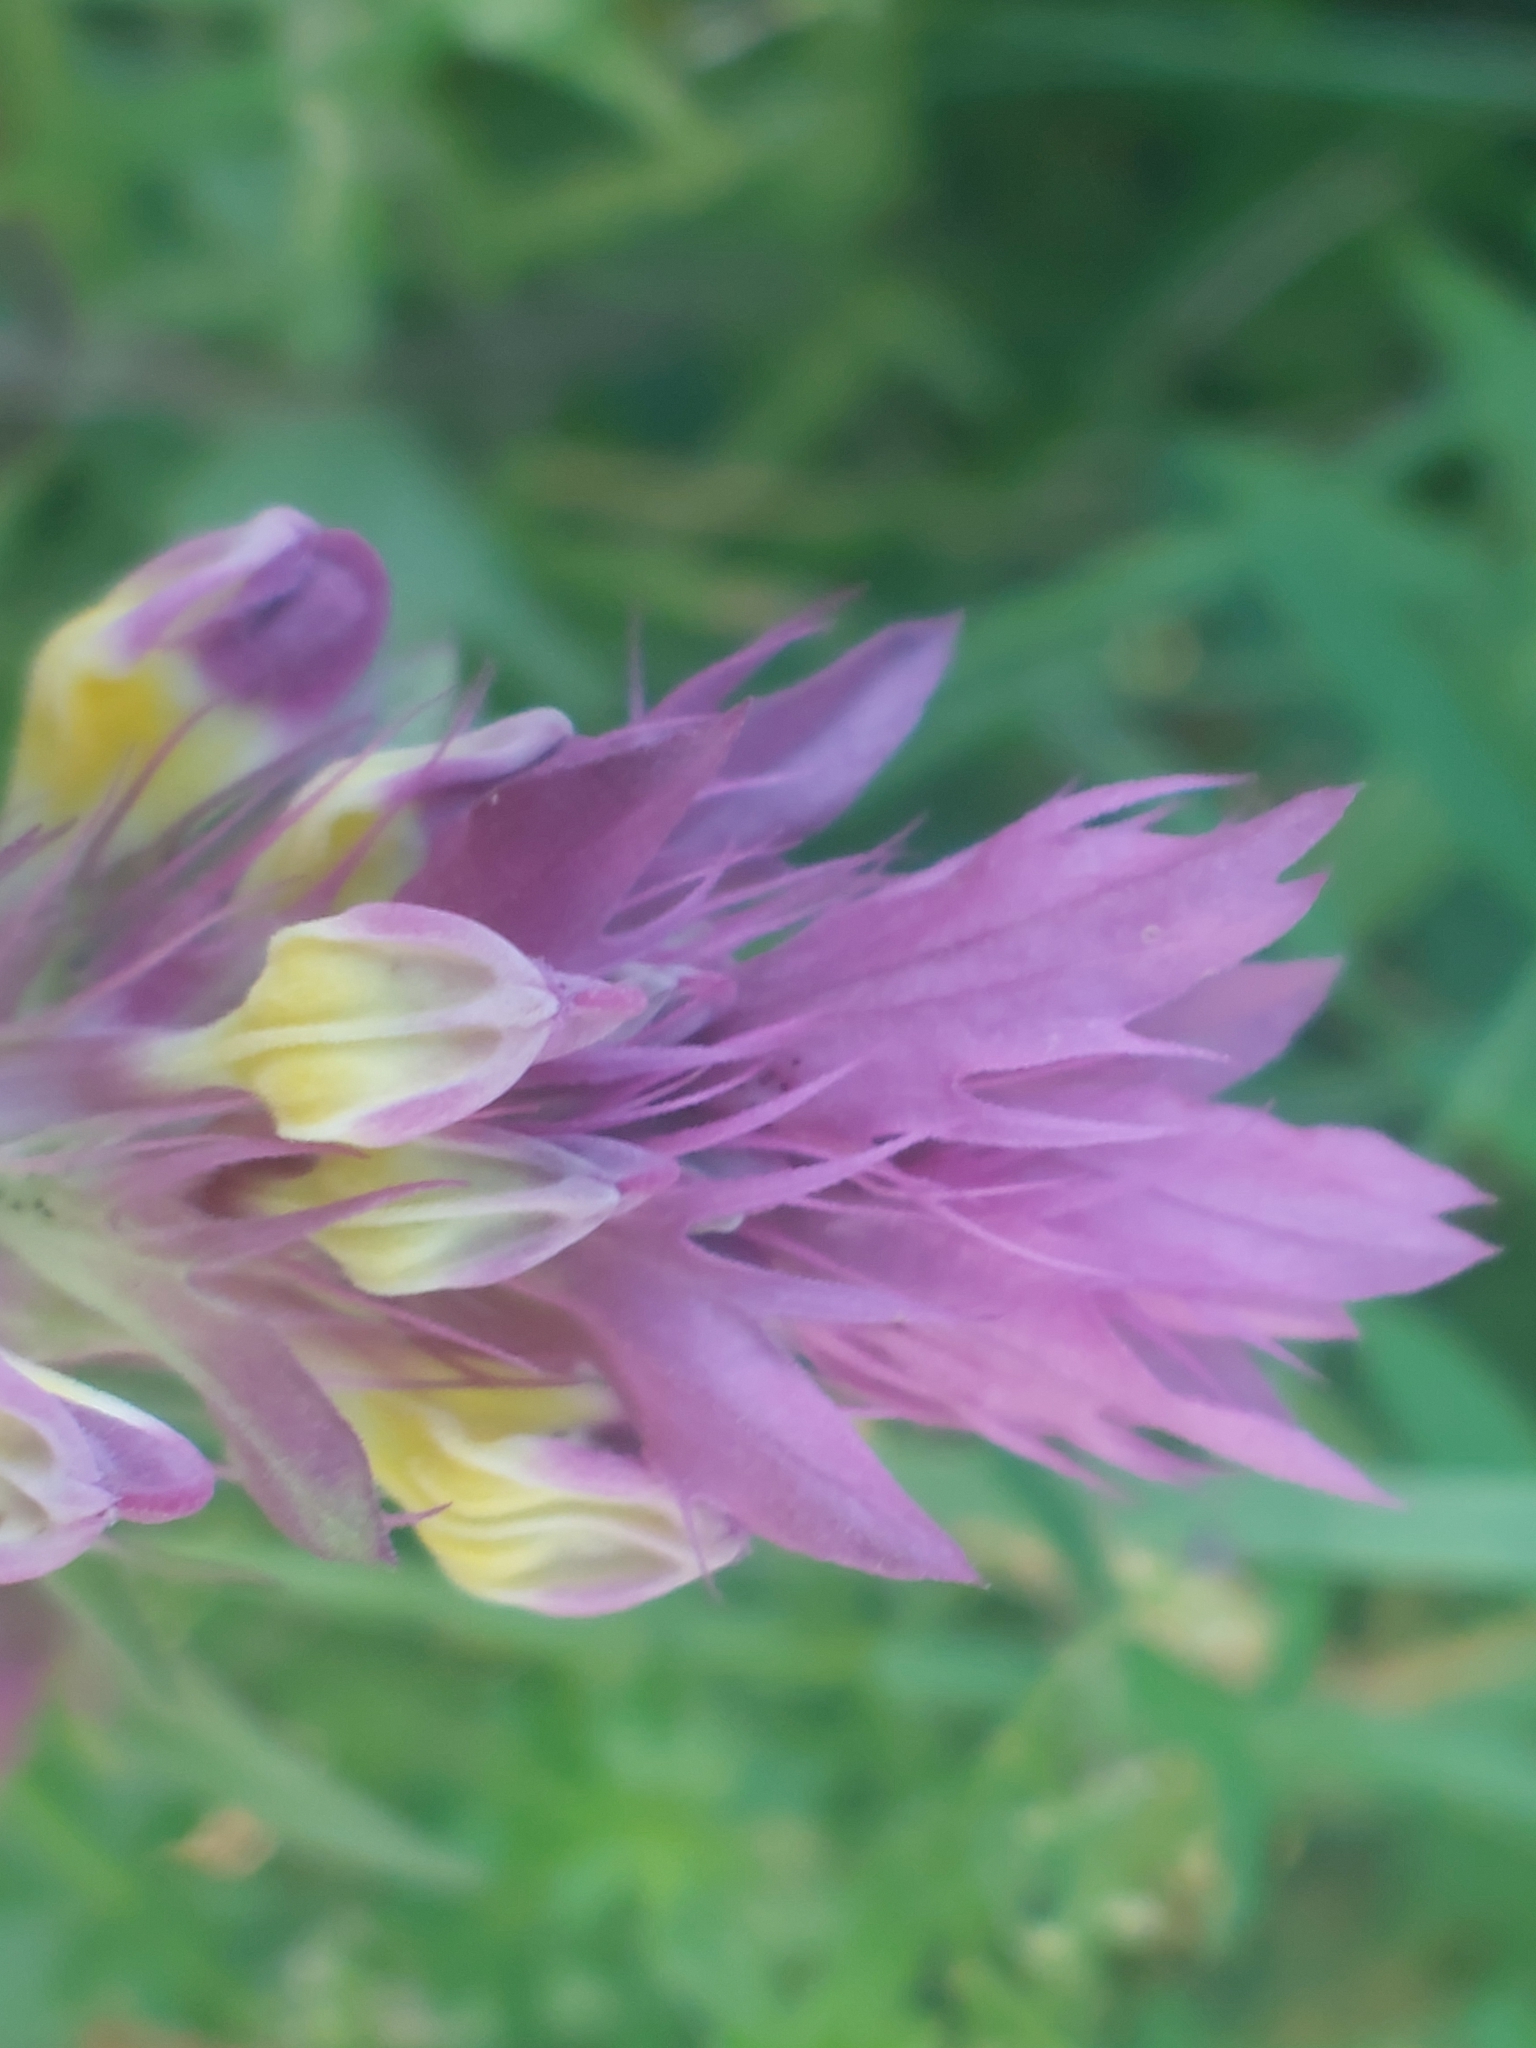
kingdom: Plantae
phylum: Tracheophyta
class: Magnoliopsida
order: Lamiales
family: Orobanchaceae
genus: Melampyrum
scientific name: Melampyrum arvense
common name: Field cow-wheat
